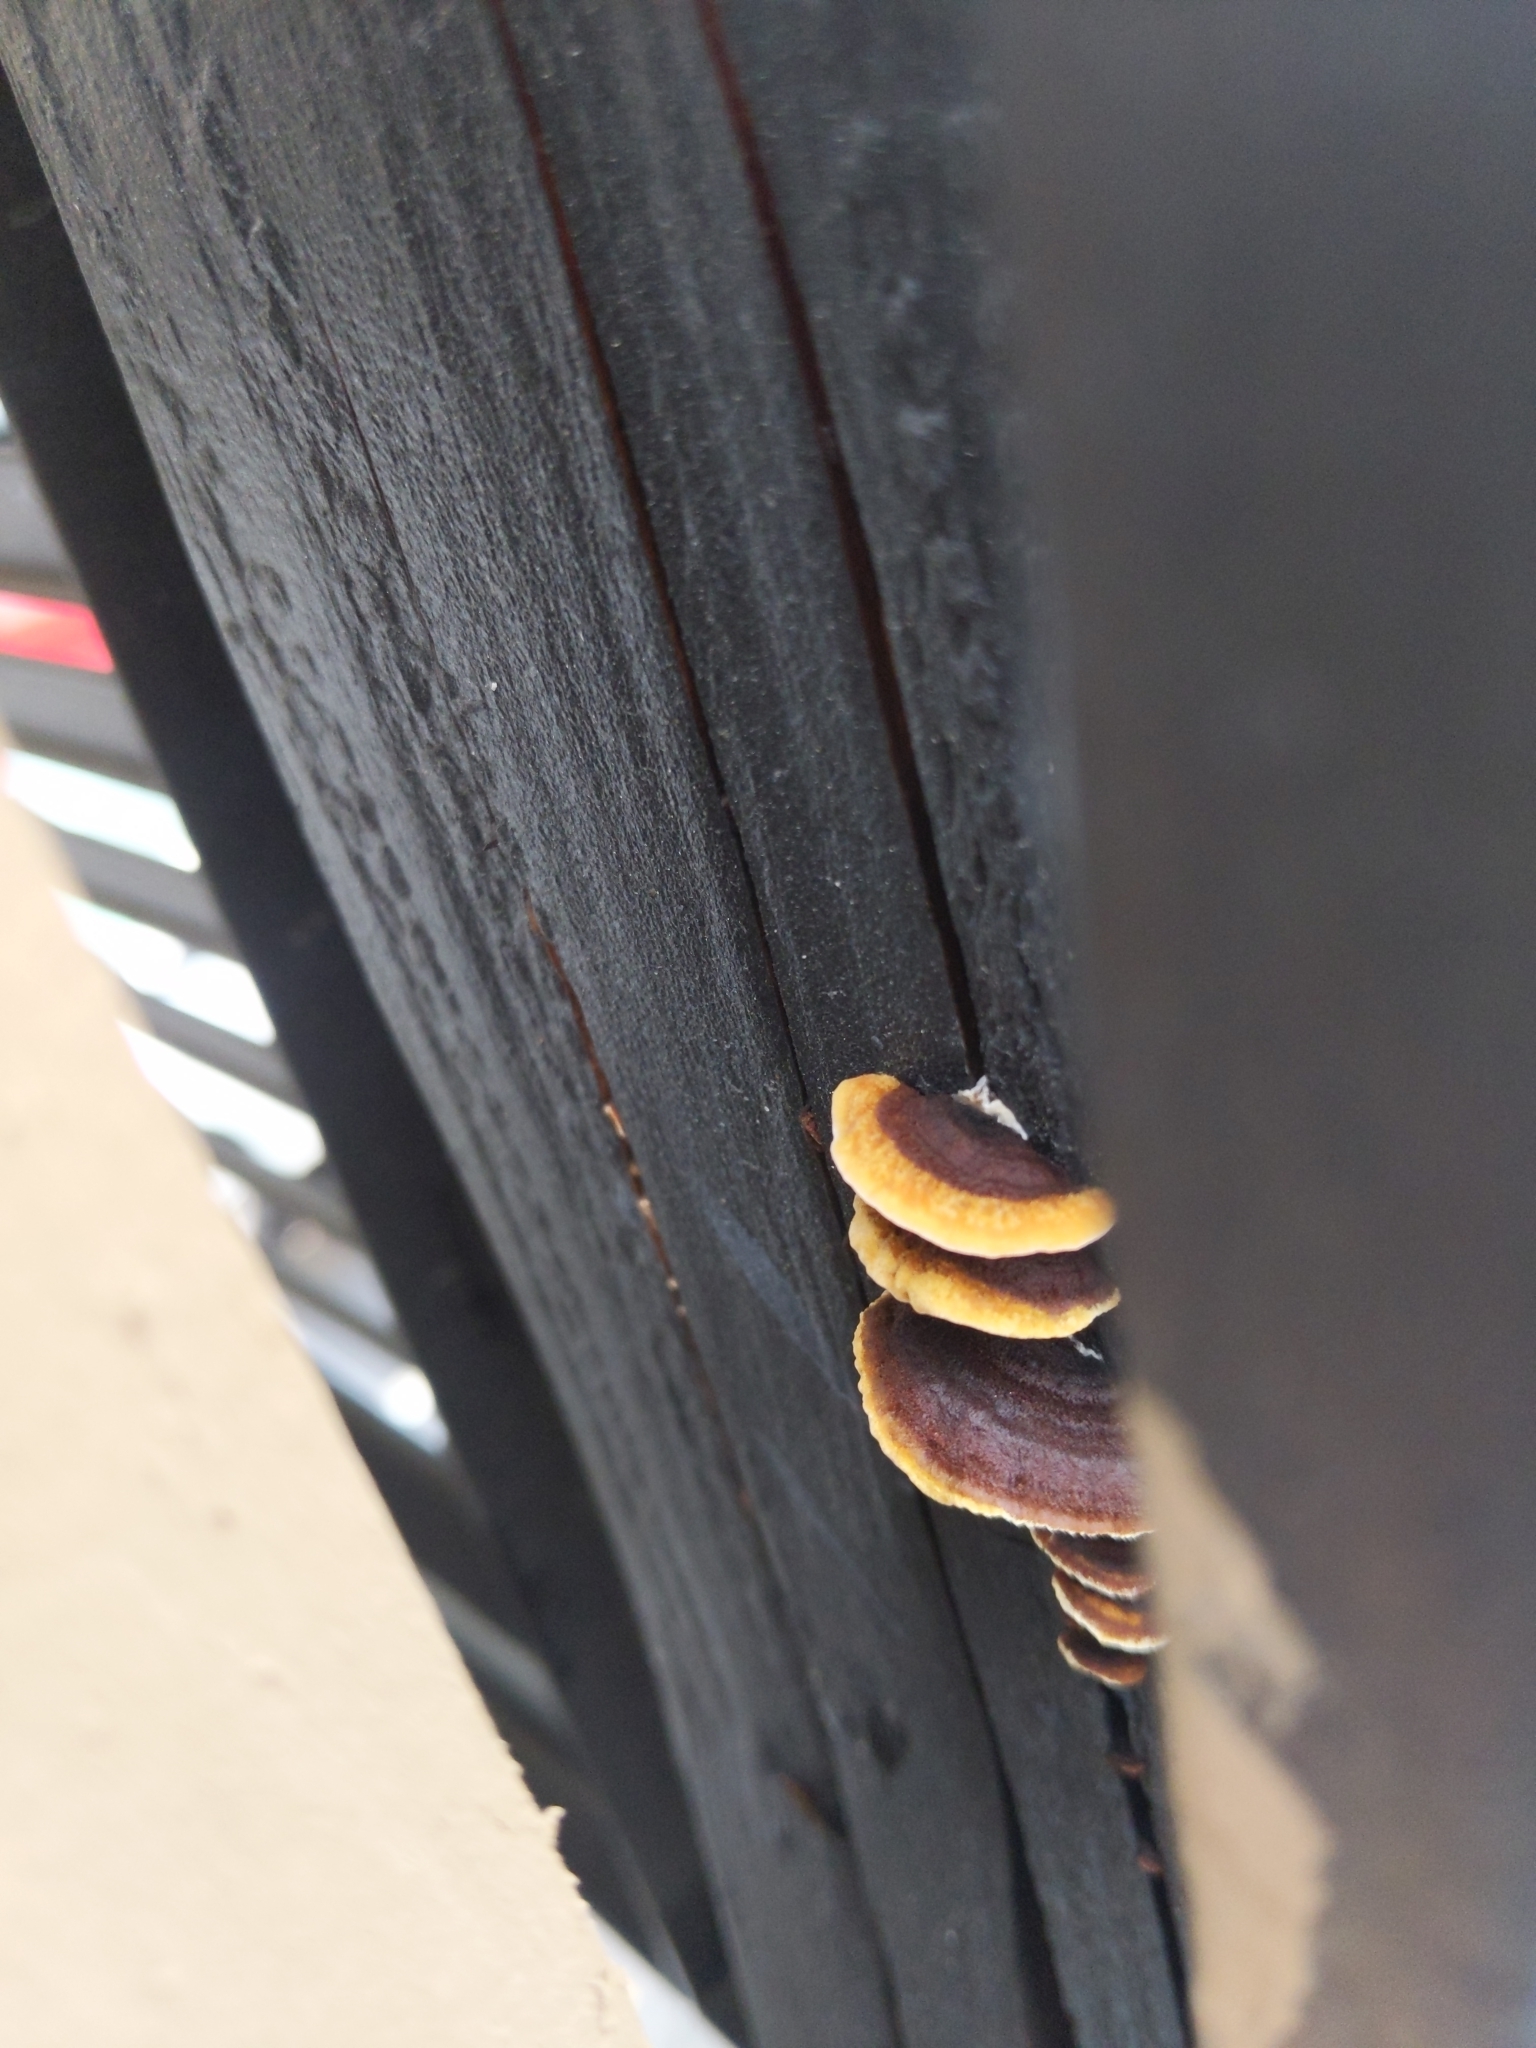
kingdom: Fungi
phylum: Basidiomycota
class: Agaricomycetes
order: Gloeophyllales
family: Gloeophyllaceae
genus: Gloeophyllum
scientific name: Gloeophyllum sepiarium
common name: Conifer mazegill
